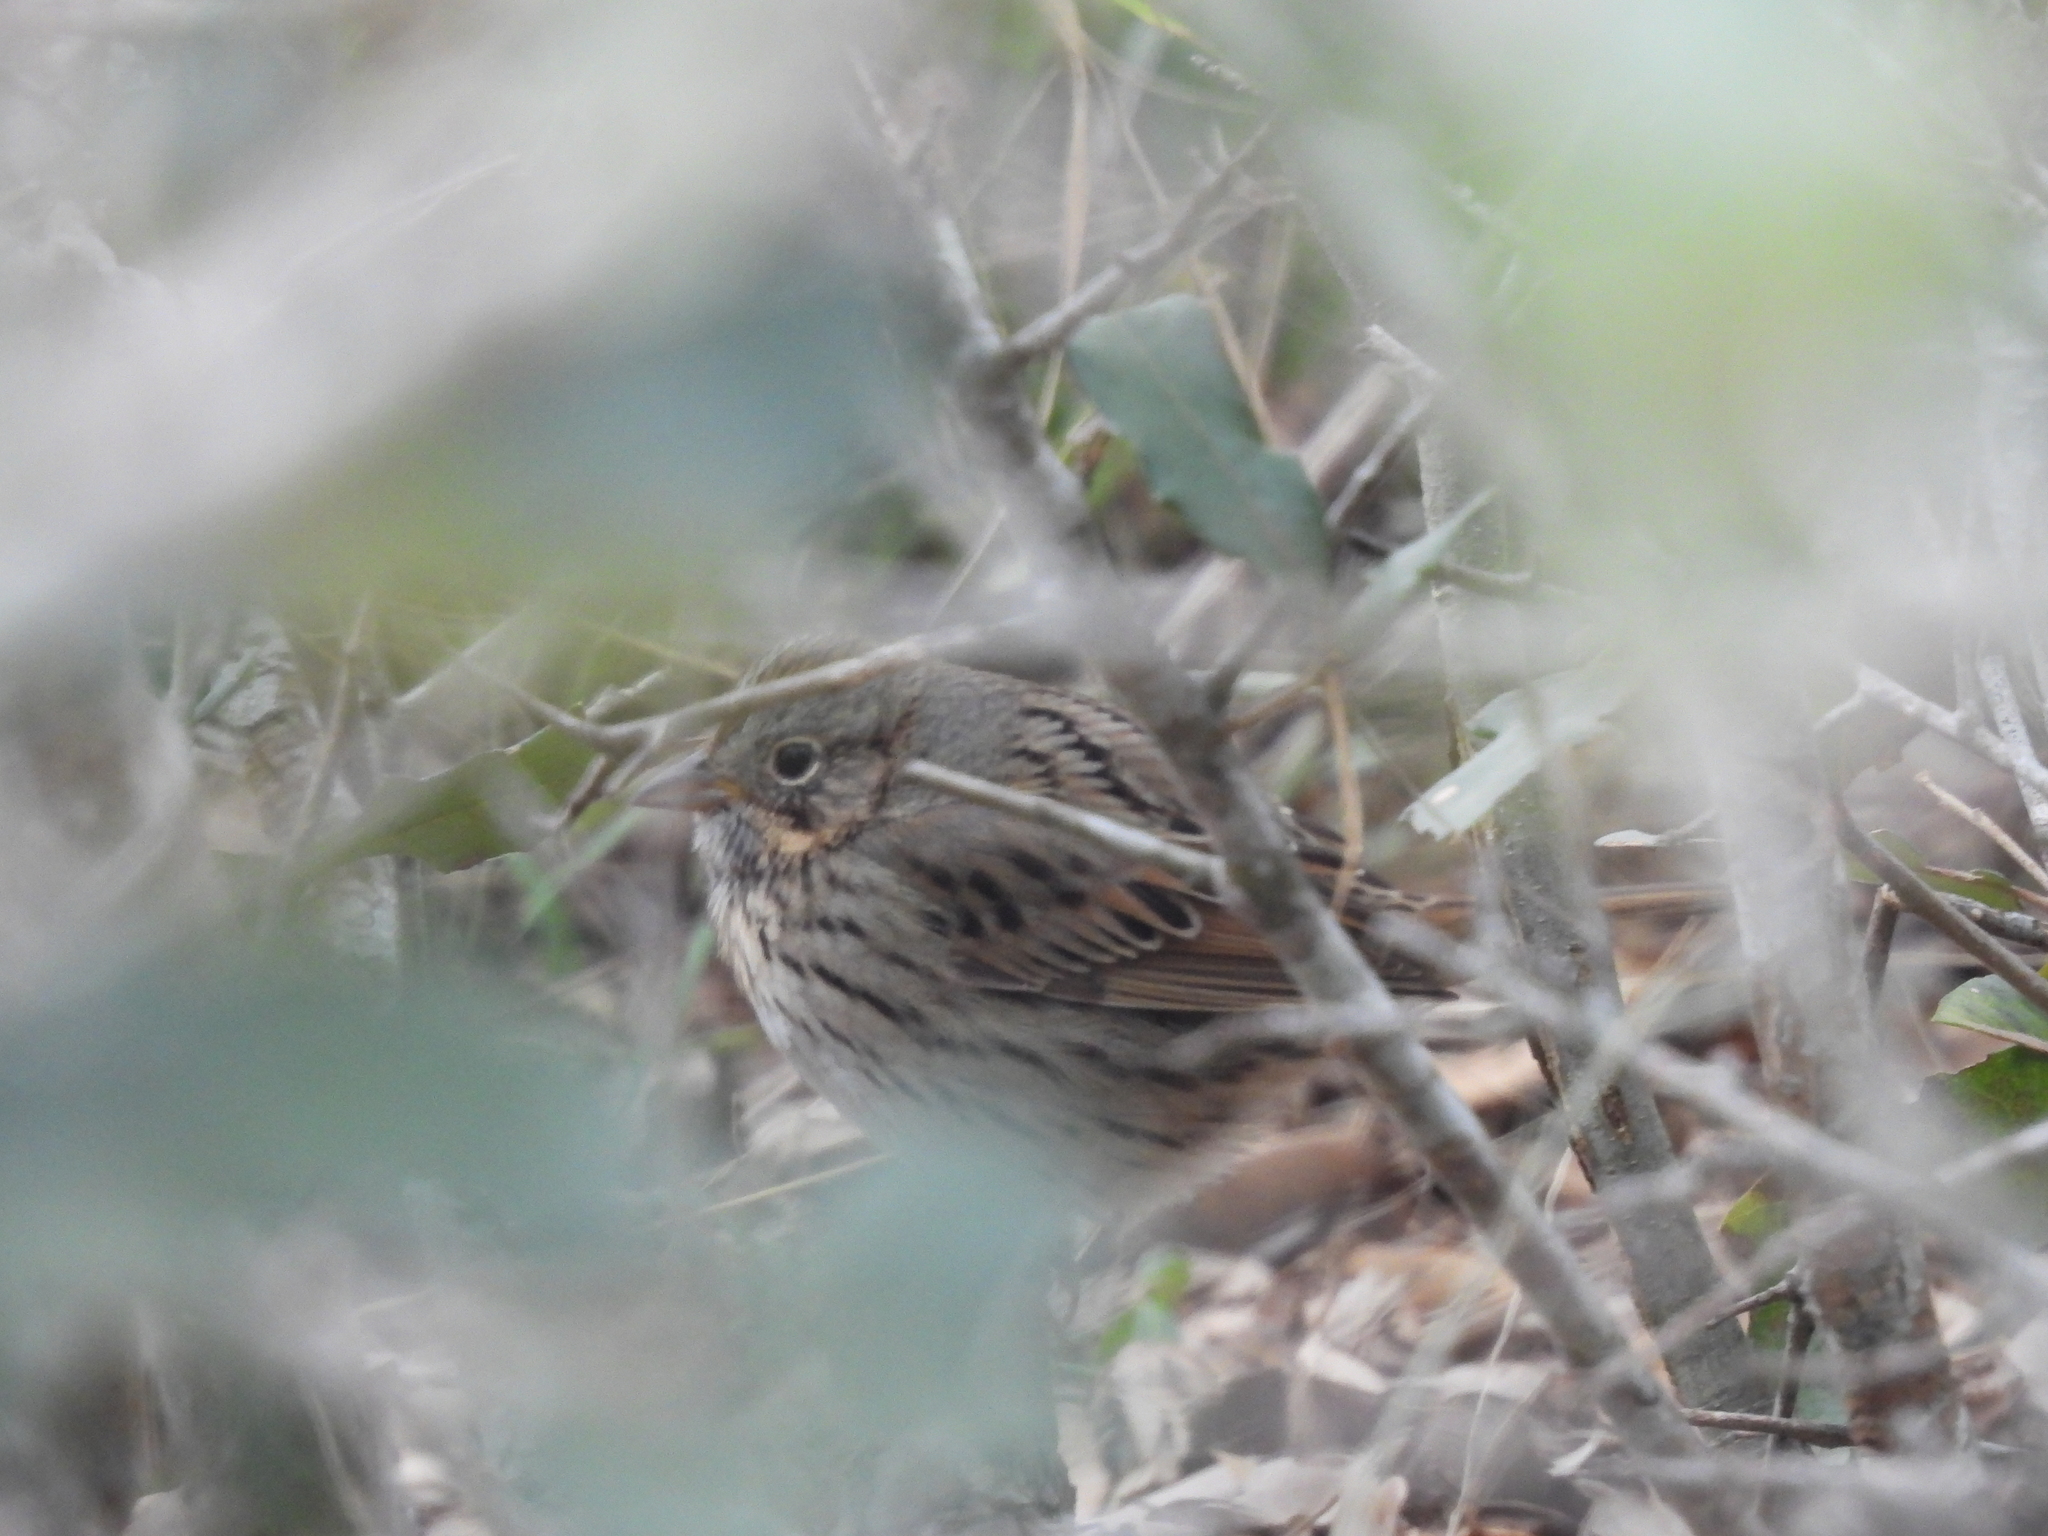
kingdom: Animalia
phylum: Chordata
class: Aves
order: Passeriformes
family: Passerellidae
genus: Melospiza
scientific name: Melospiza lincolnii
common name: Lincoln's sparrow
